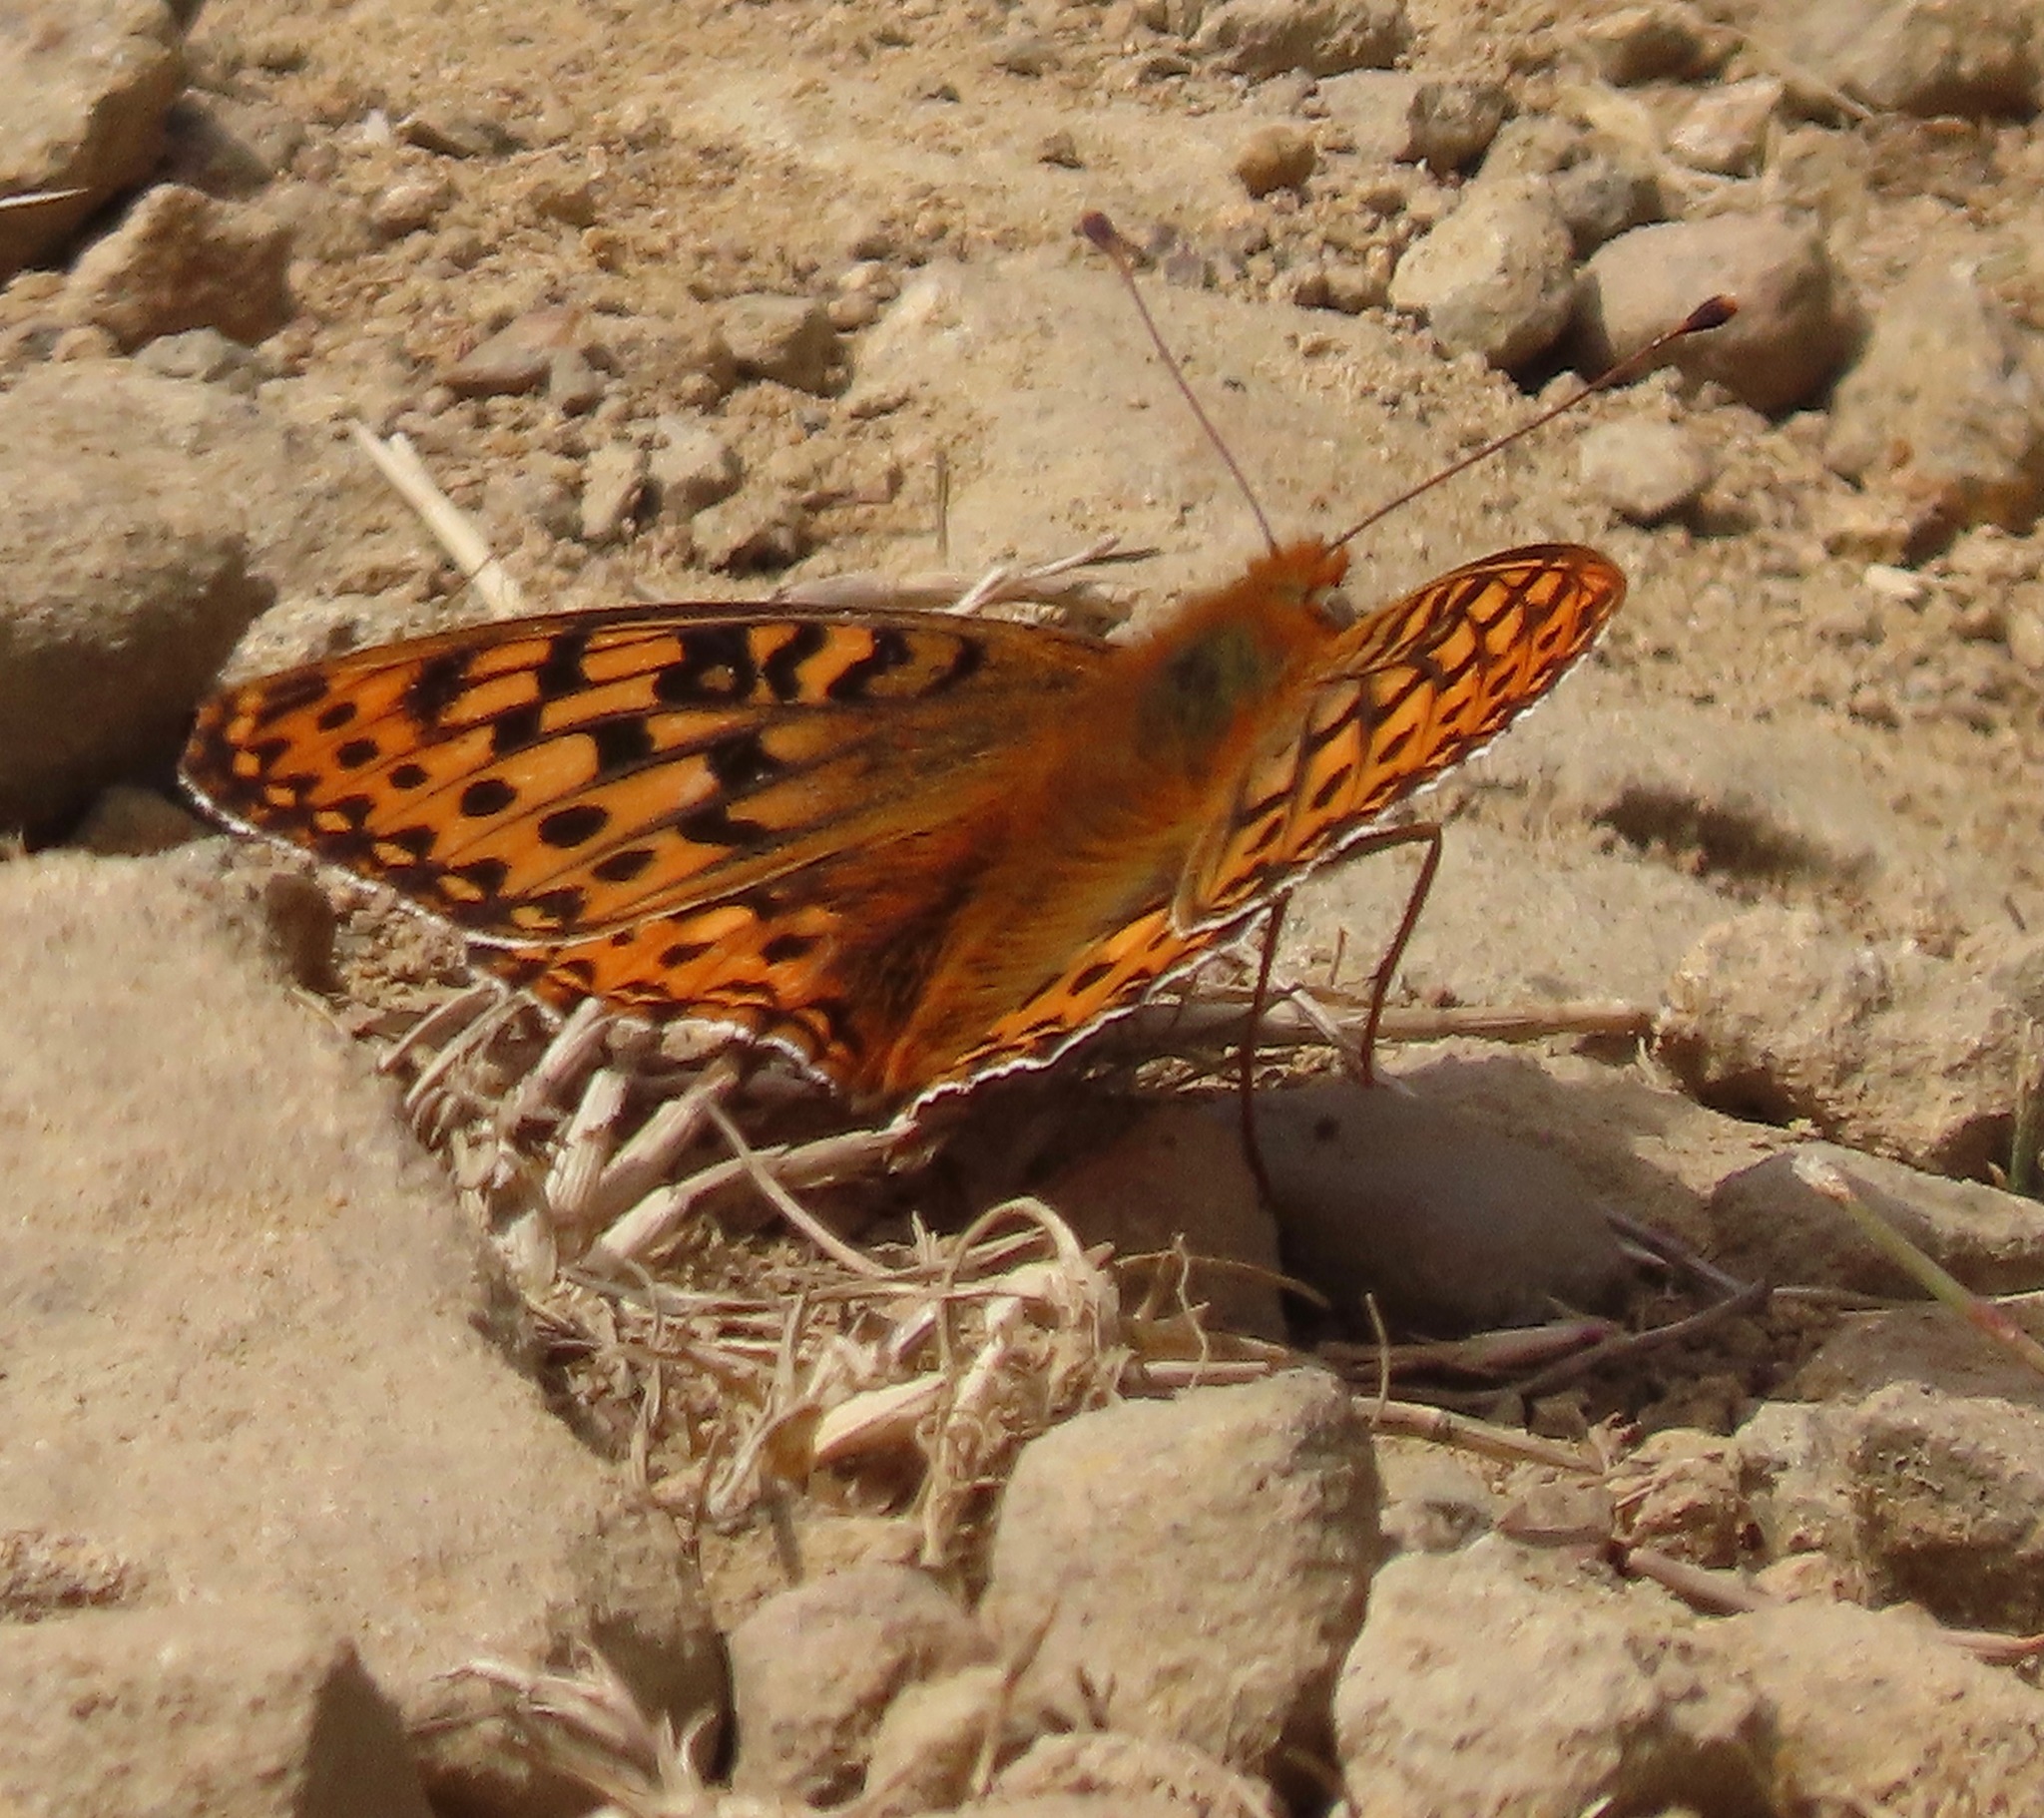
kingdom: Animalia
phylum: Arthropoda
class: Insecta
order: Lepidoptera
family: Nymphalidae
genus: Speyeria
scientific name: Speyeria zerene
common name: Zerene fritillary
